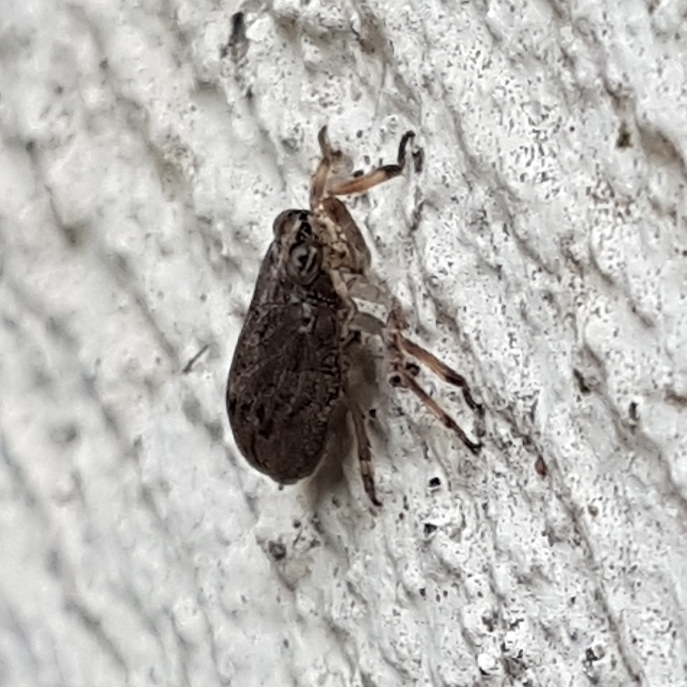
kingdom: Animalia
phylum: Arthropoda
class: Insecta
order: Hemiptera
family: Issidae
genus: Issus
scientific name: Issus coleoptratus
